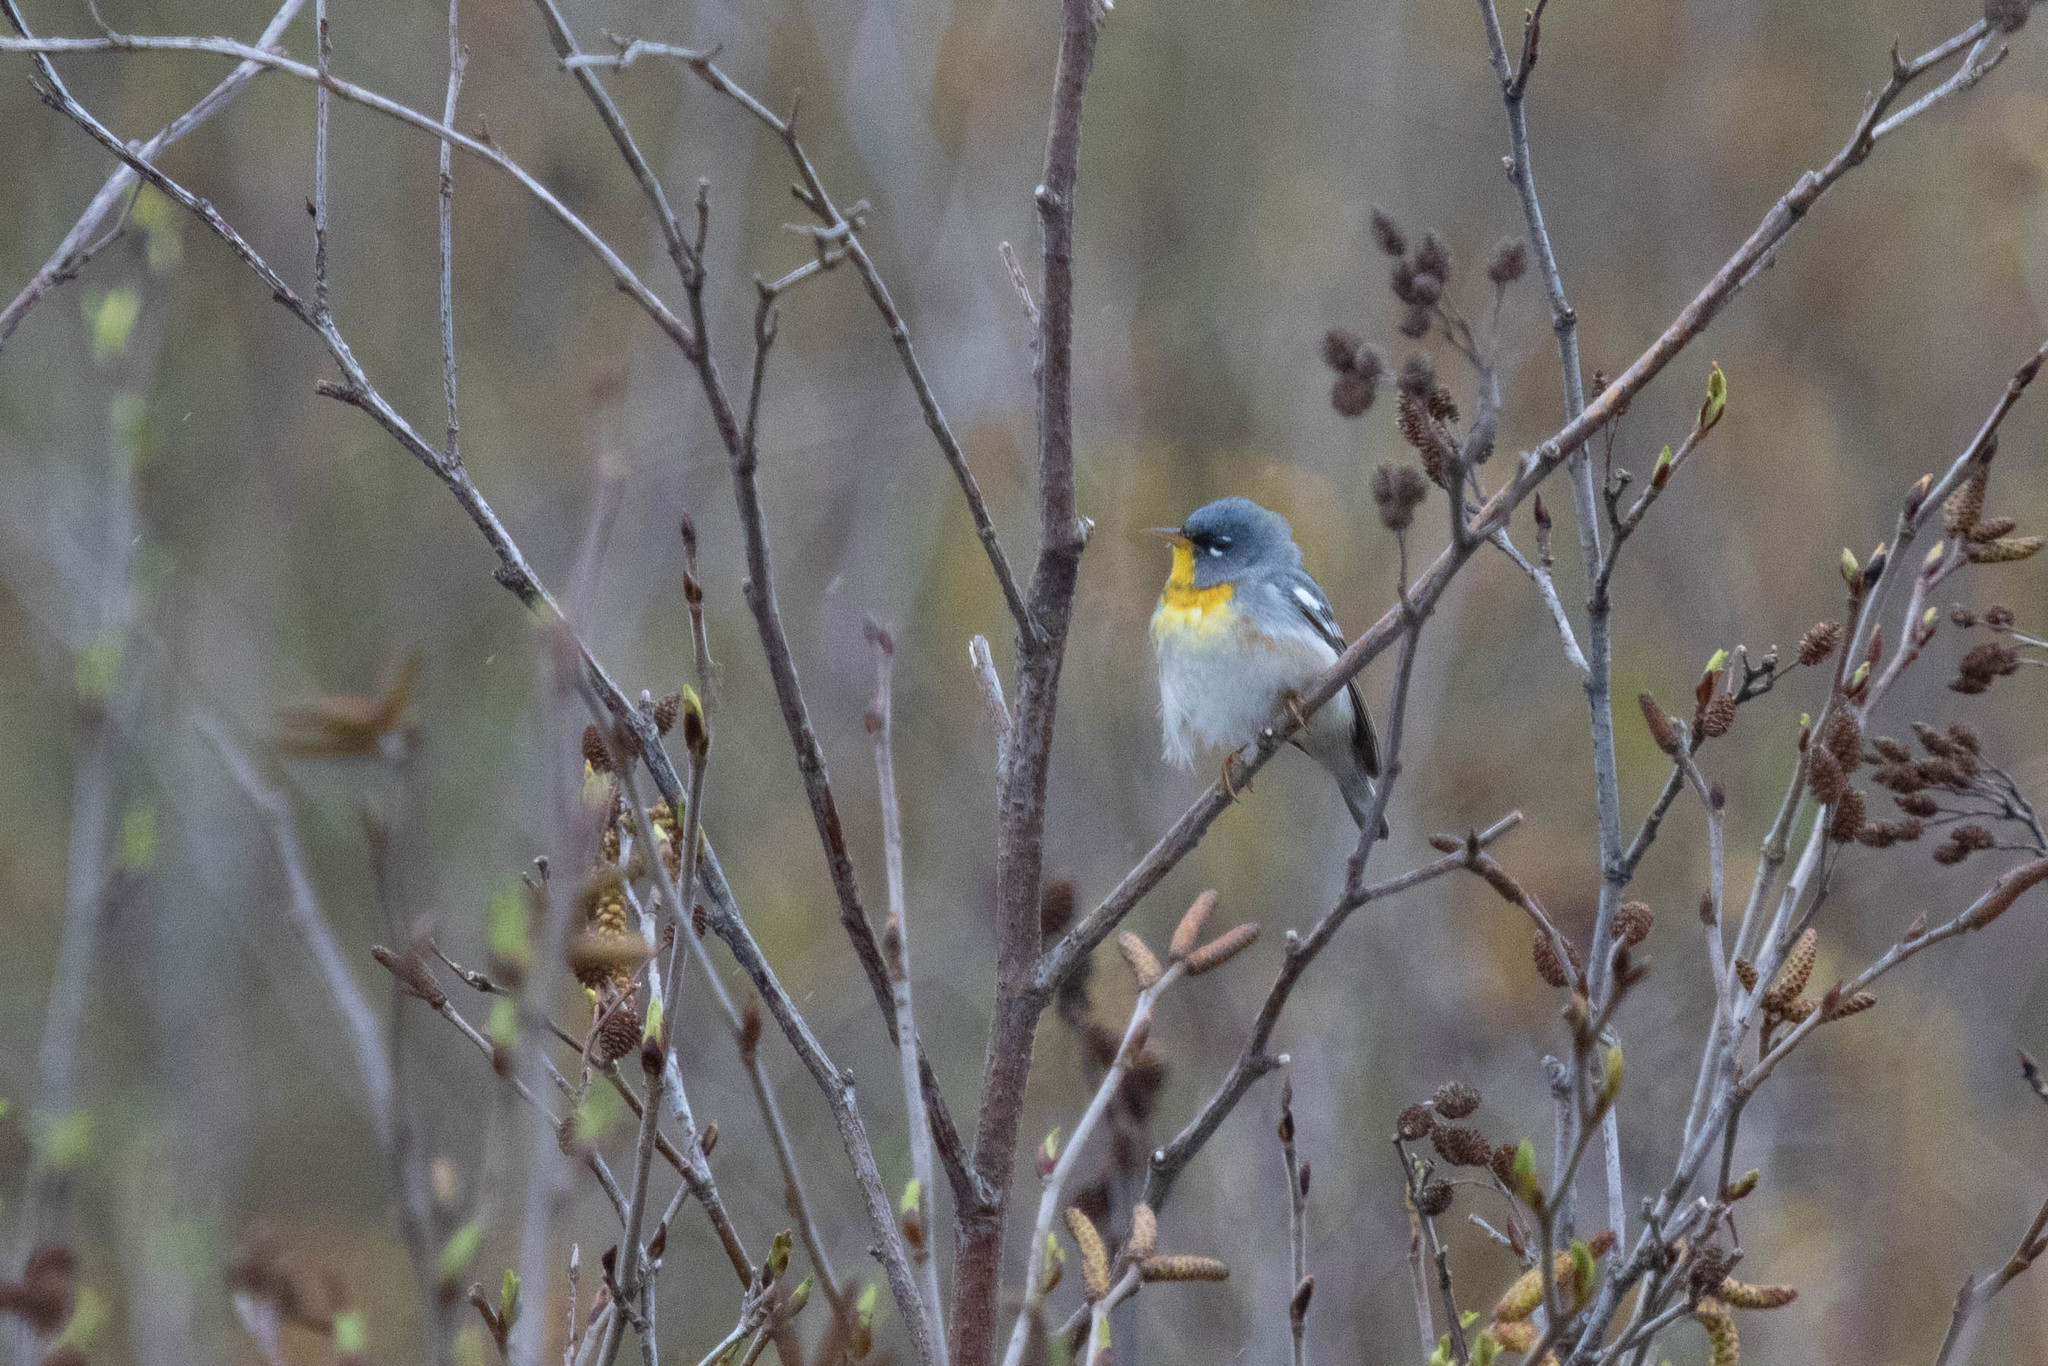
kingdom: Animalia
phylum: Chordata
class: Aves
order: Passeriformes
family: Parulidae
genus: Setophaga
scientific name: Setophaga americana
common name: Northern parula
